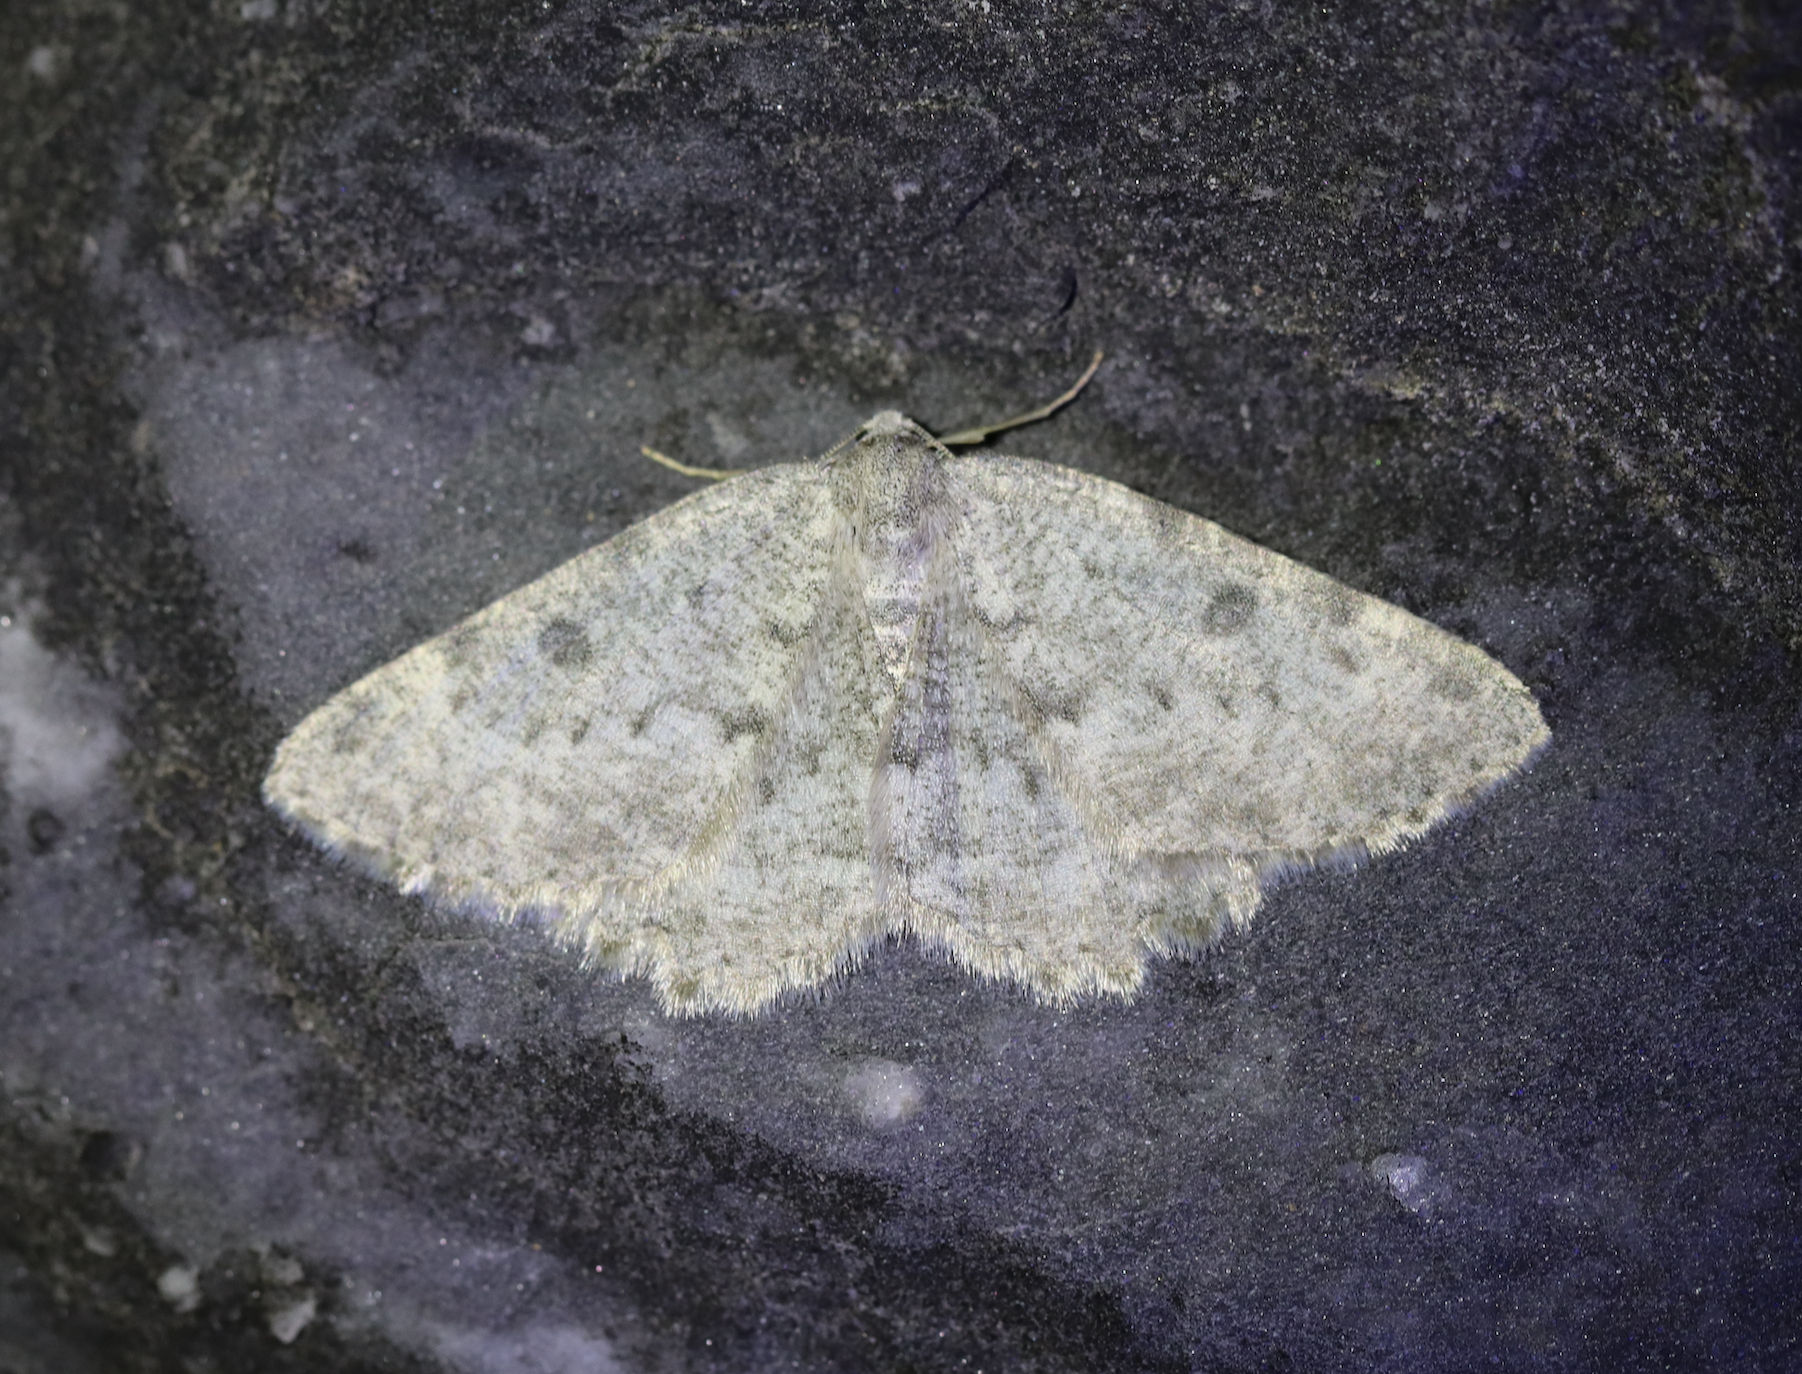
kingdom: Animalia
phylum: Arthropoda
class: Insecta
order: Lepidoptera
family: Geometridae
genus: Charissa
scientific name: Charissa glaucinaria
